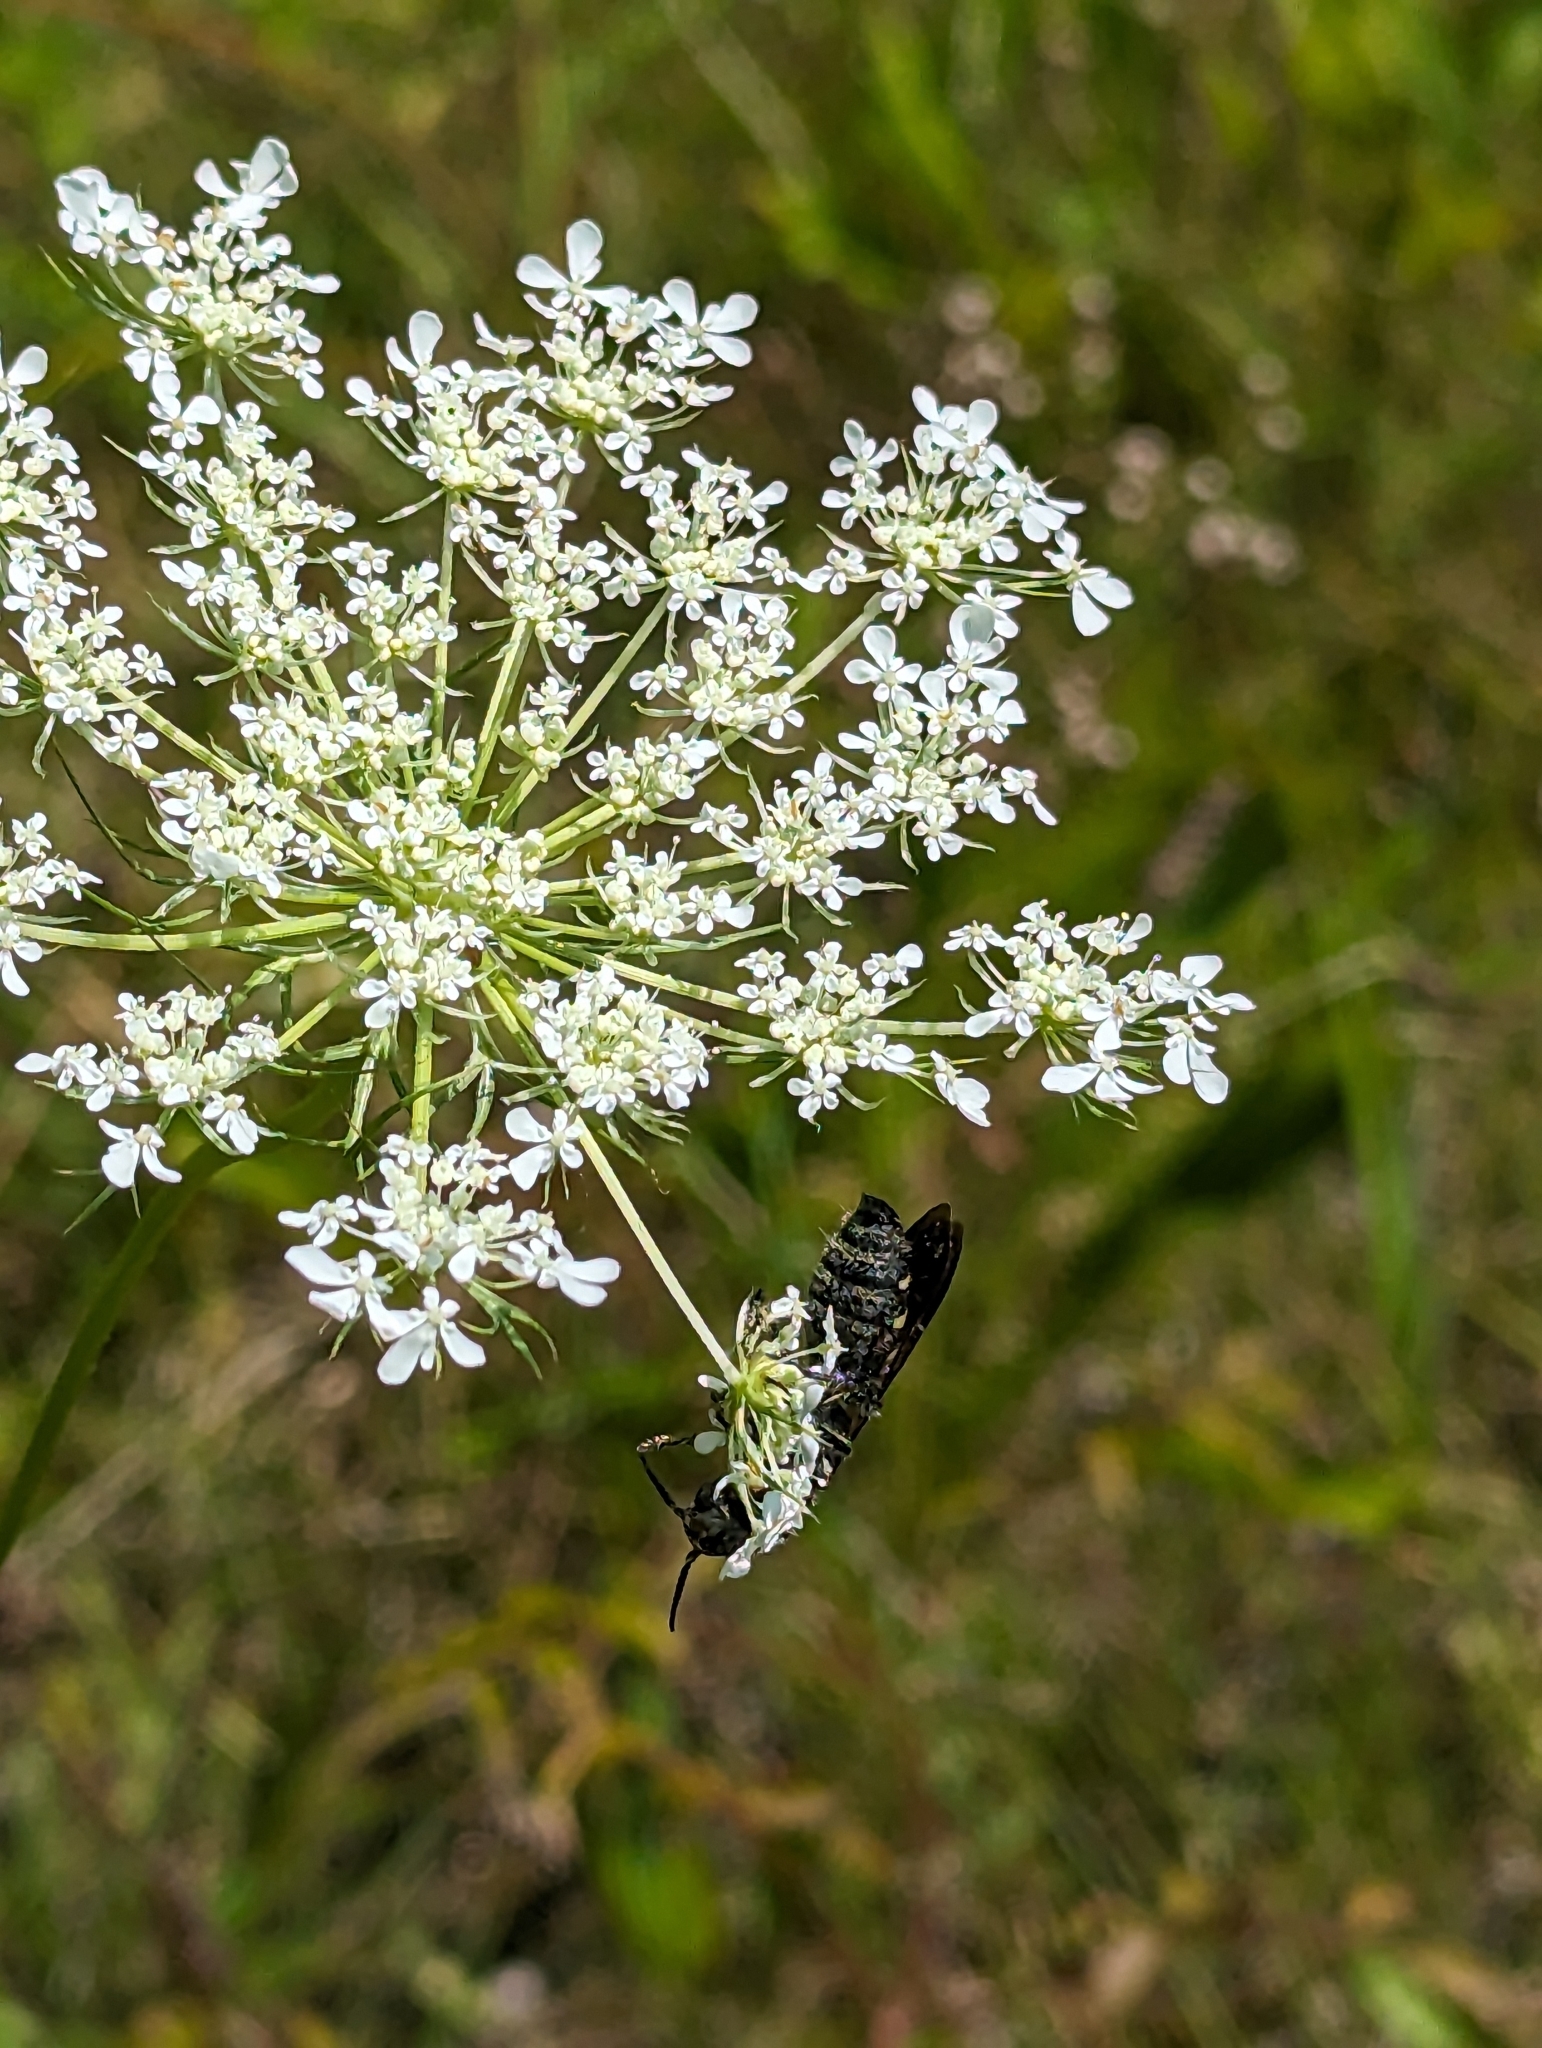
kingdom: Plantae
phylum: Tracheophyta
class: Magnoliopsida
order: Apiales
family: Apiaceae
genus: Daucus
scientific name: Daucus carota
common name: Wild carrot
